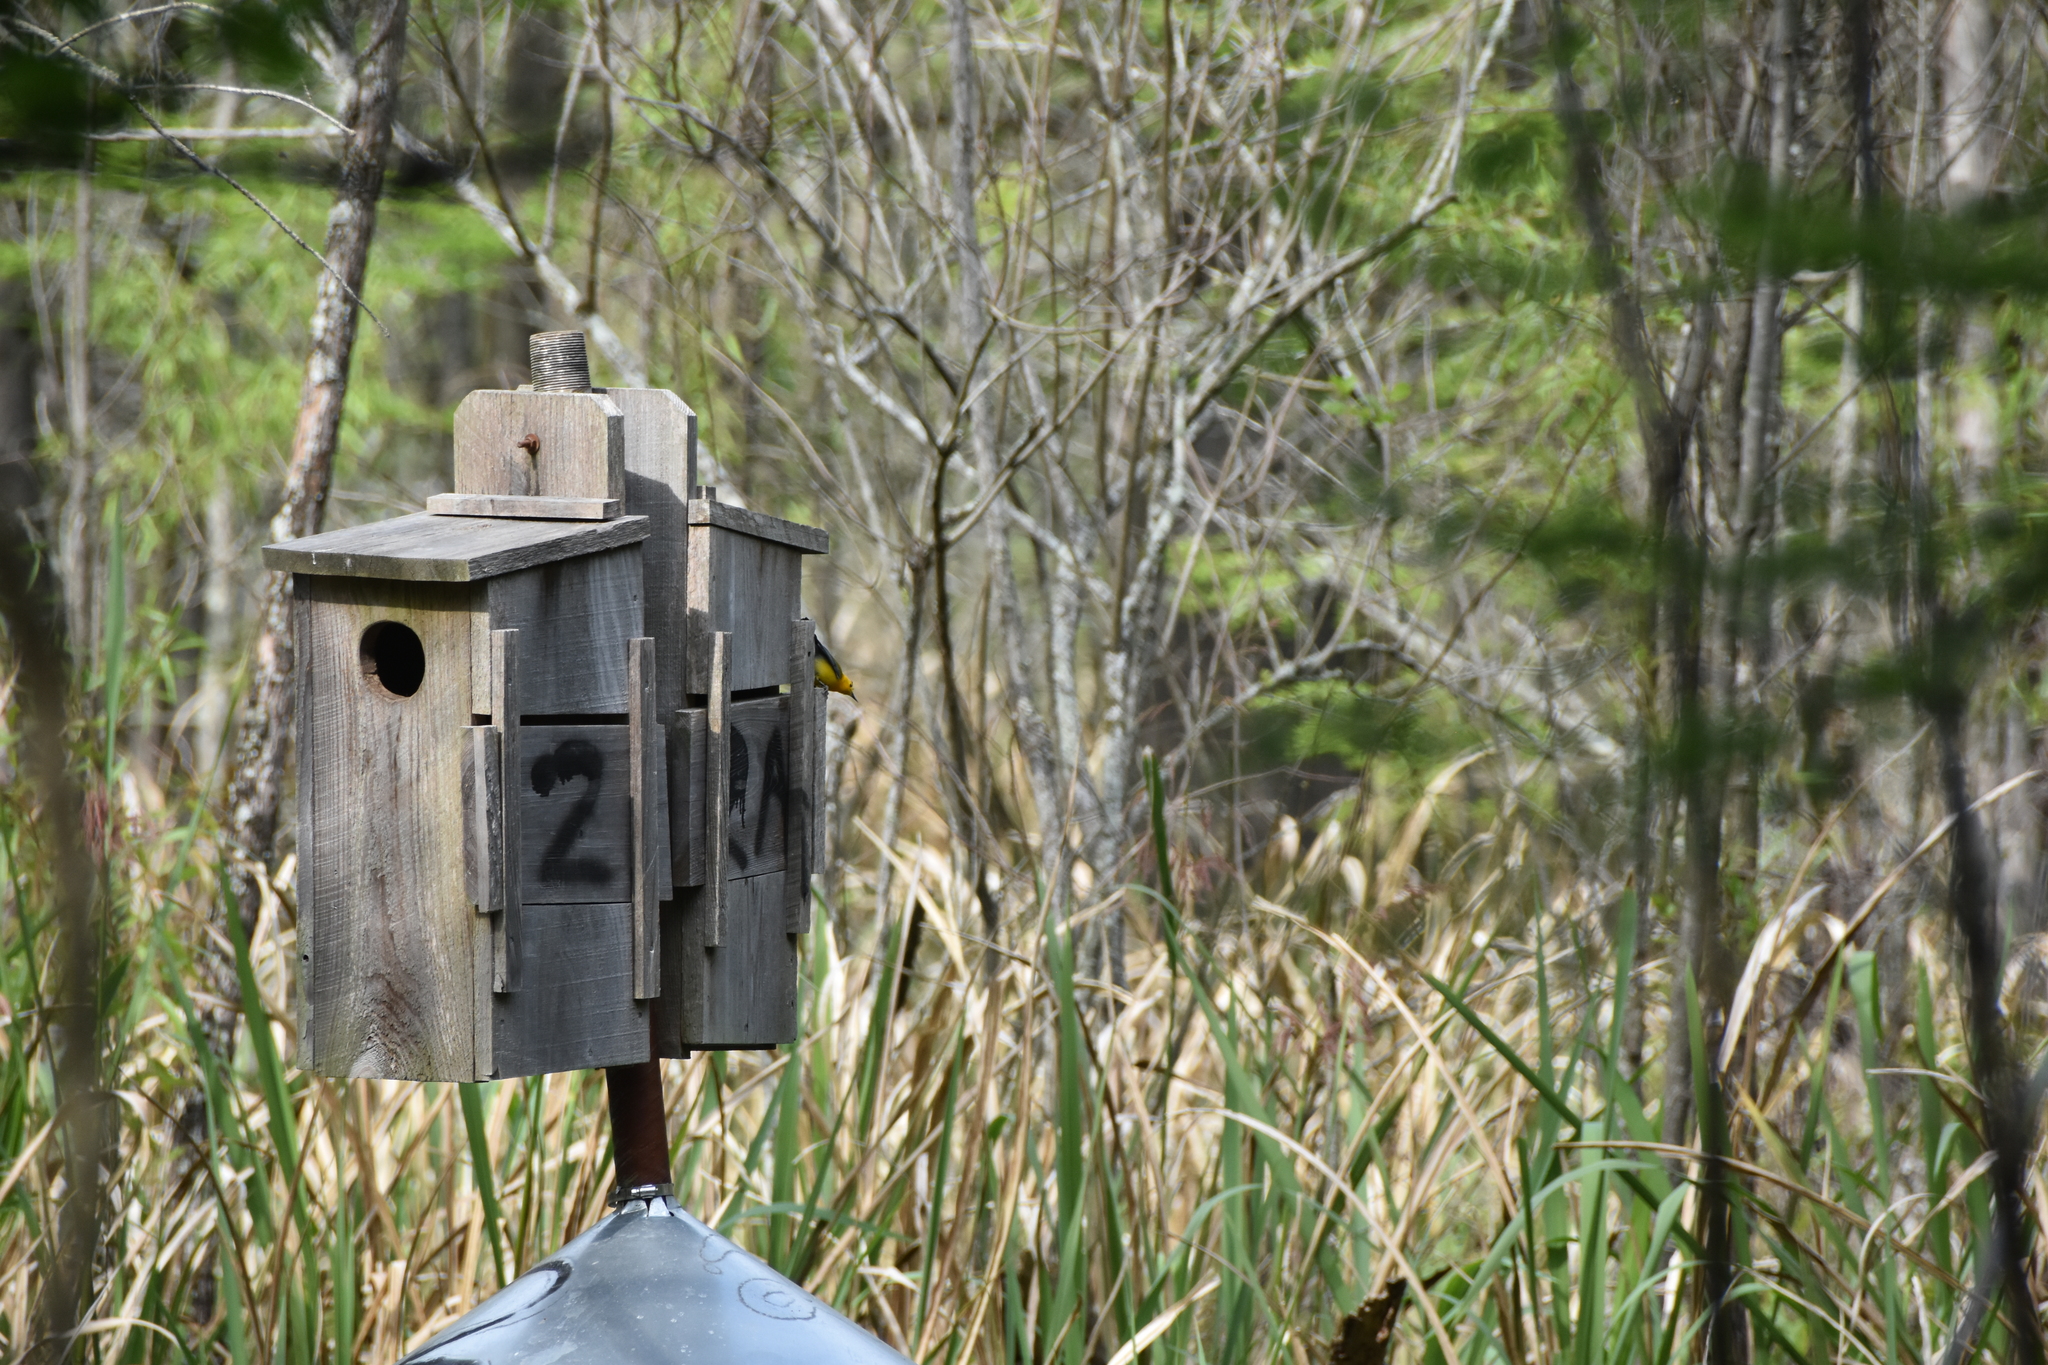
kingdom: Animalia
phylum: Chordata
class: Aves
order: Passeriformes
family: Parulidae
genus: Protonotaria
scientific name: Protonotaria citrea
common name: Prothonotary warbler
